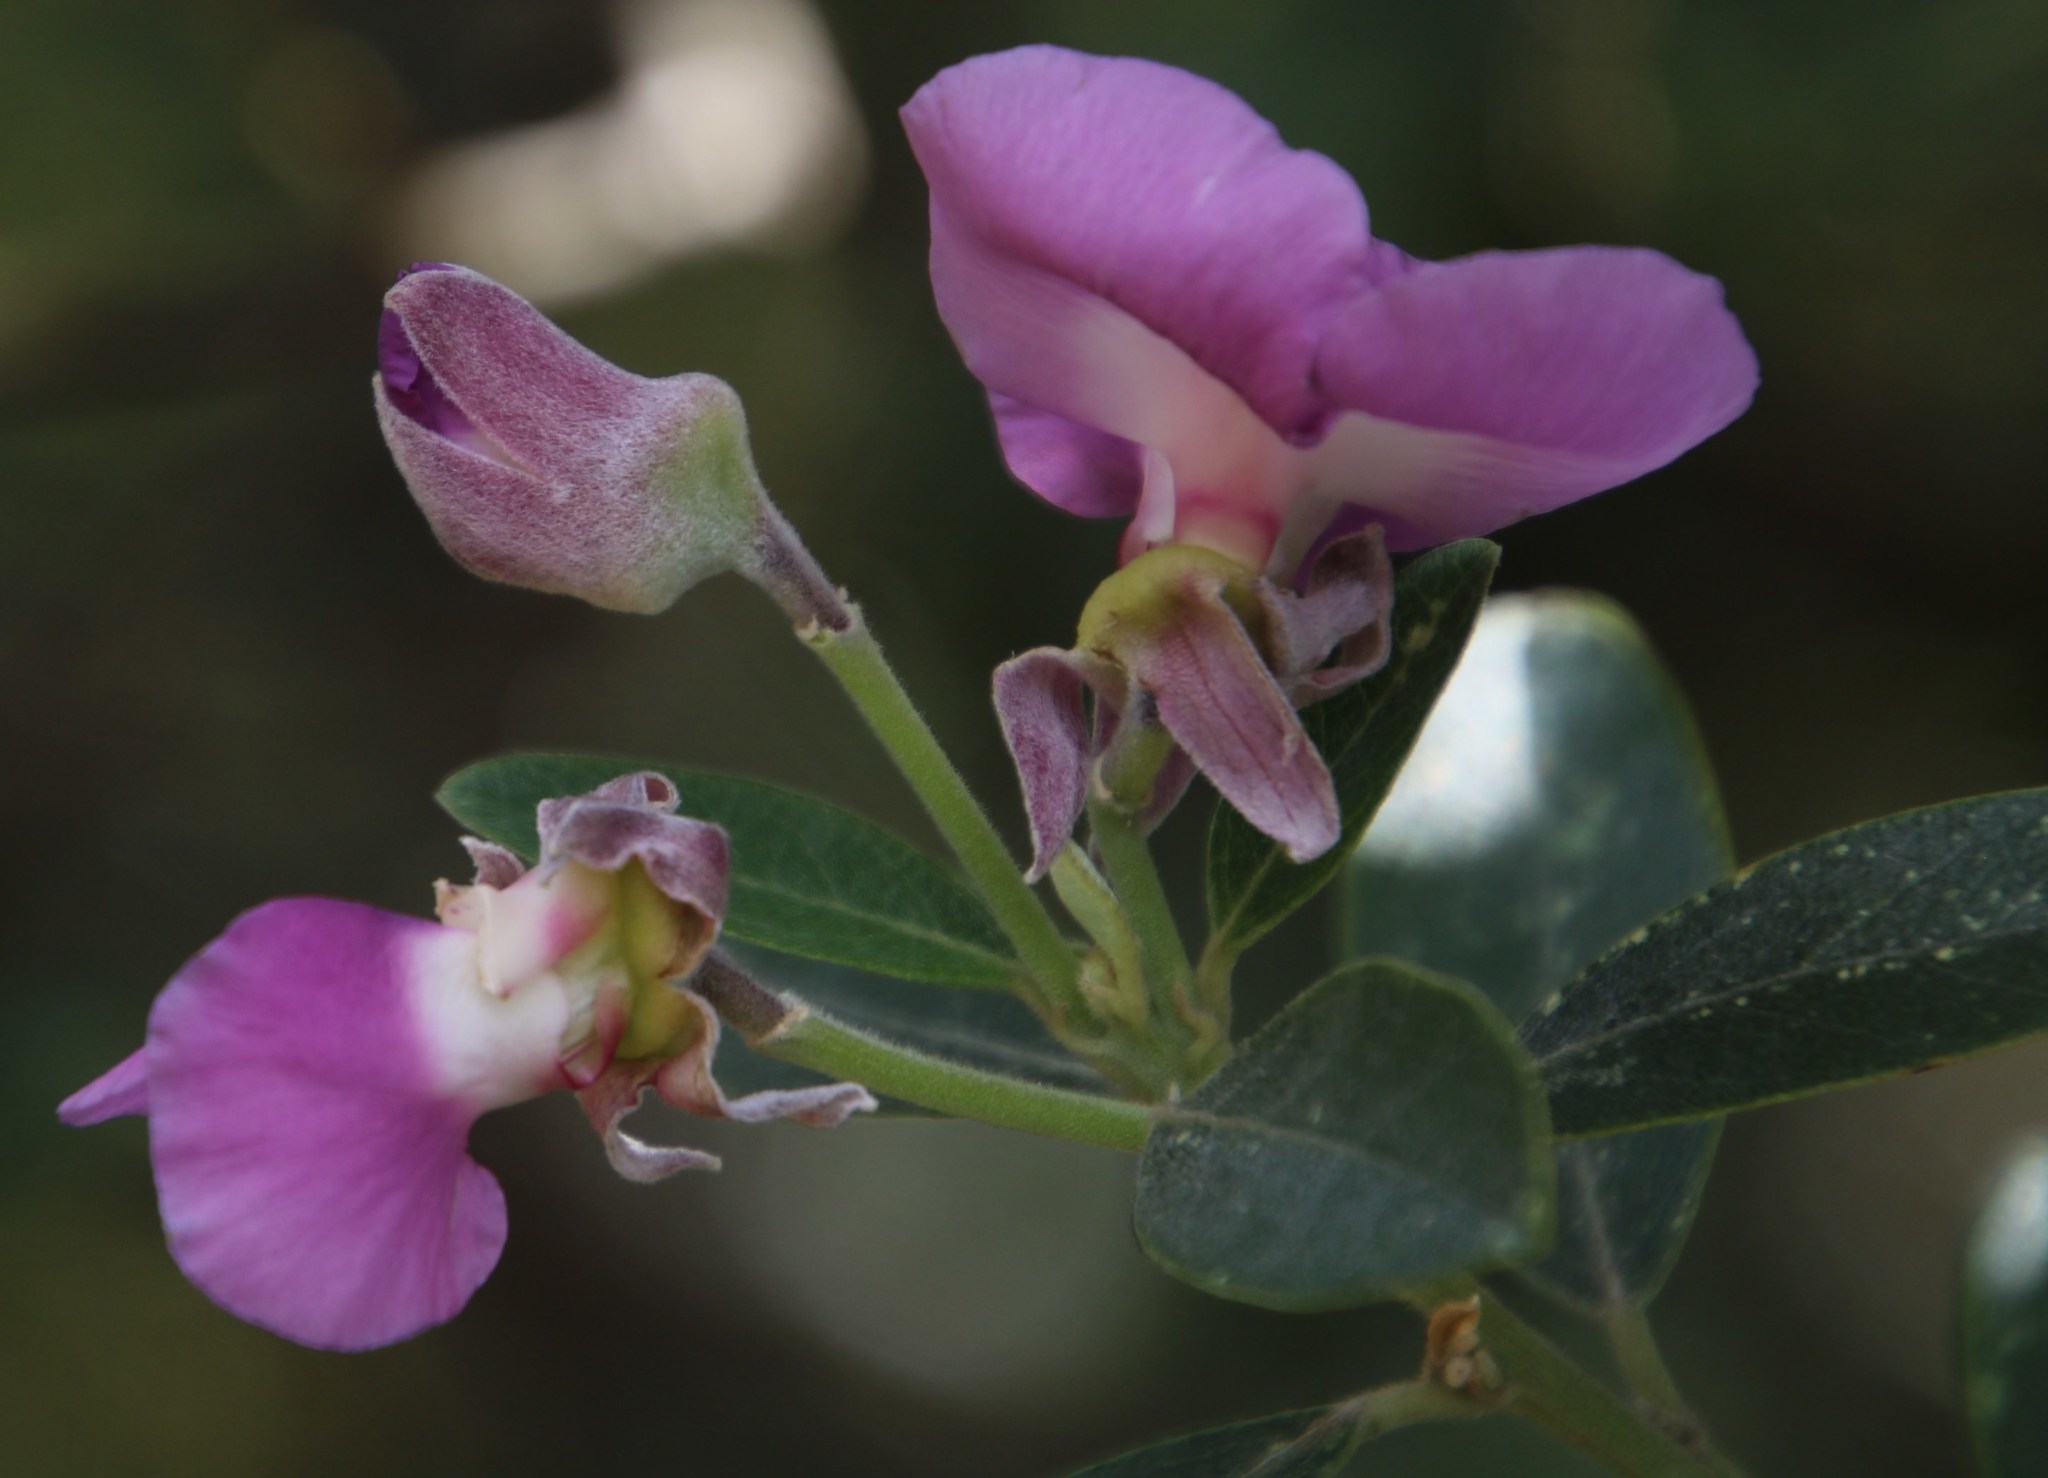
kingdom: Plantae
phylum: Tracheophyta
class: Magnoliopsida
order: Fabales
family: Fabaceae
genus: Podalyria
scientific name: Podalyria calyptrata
